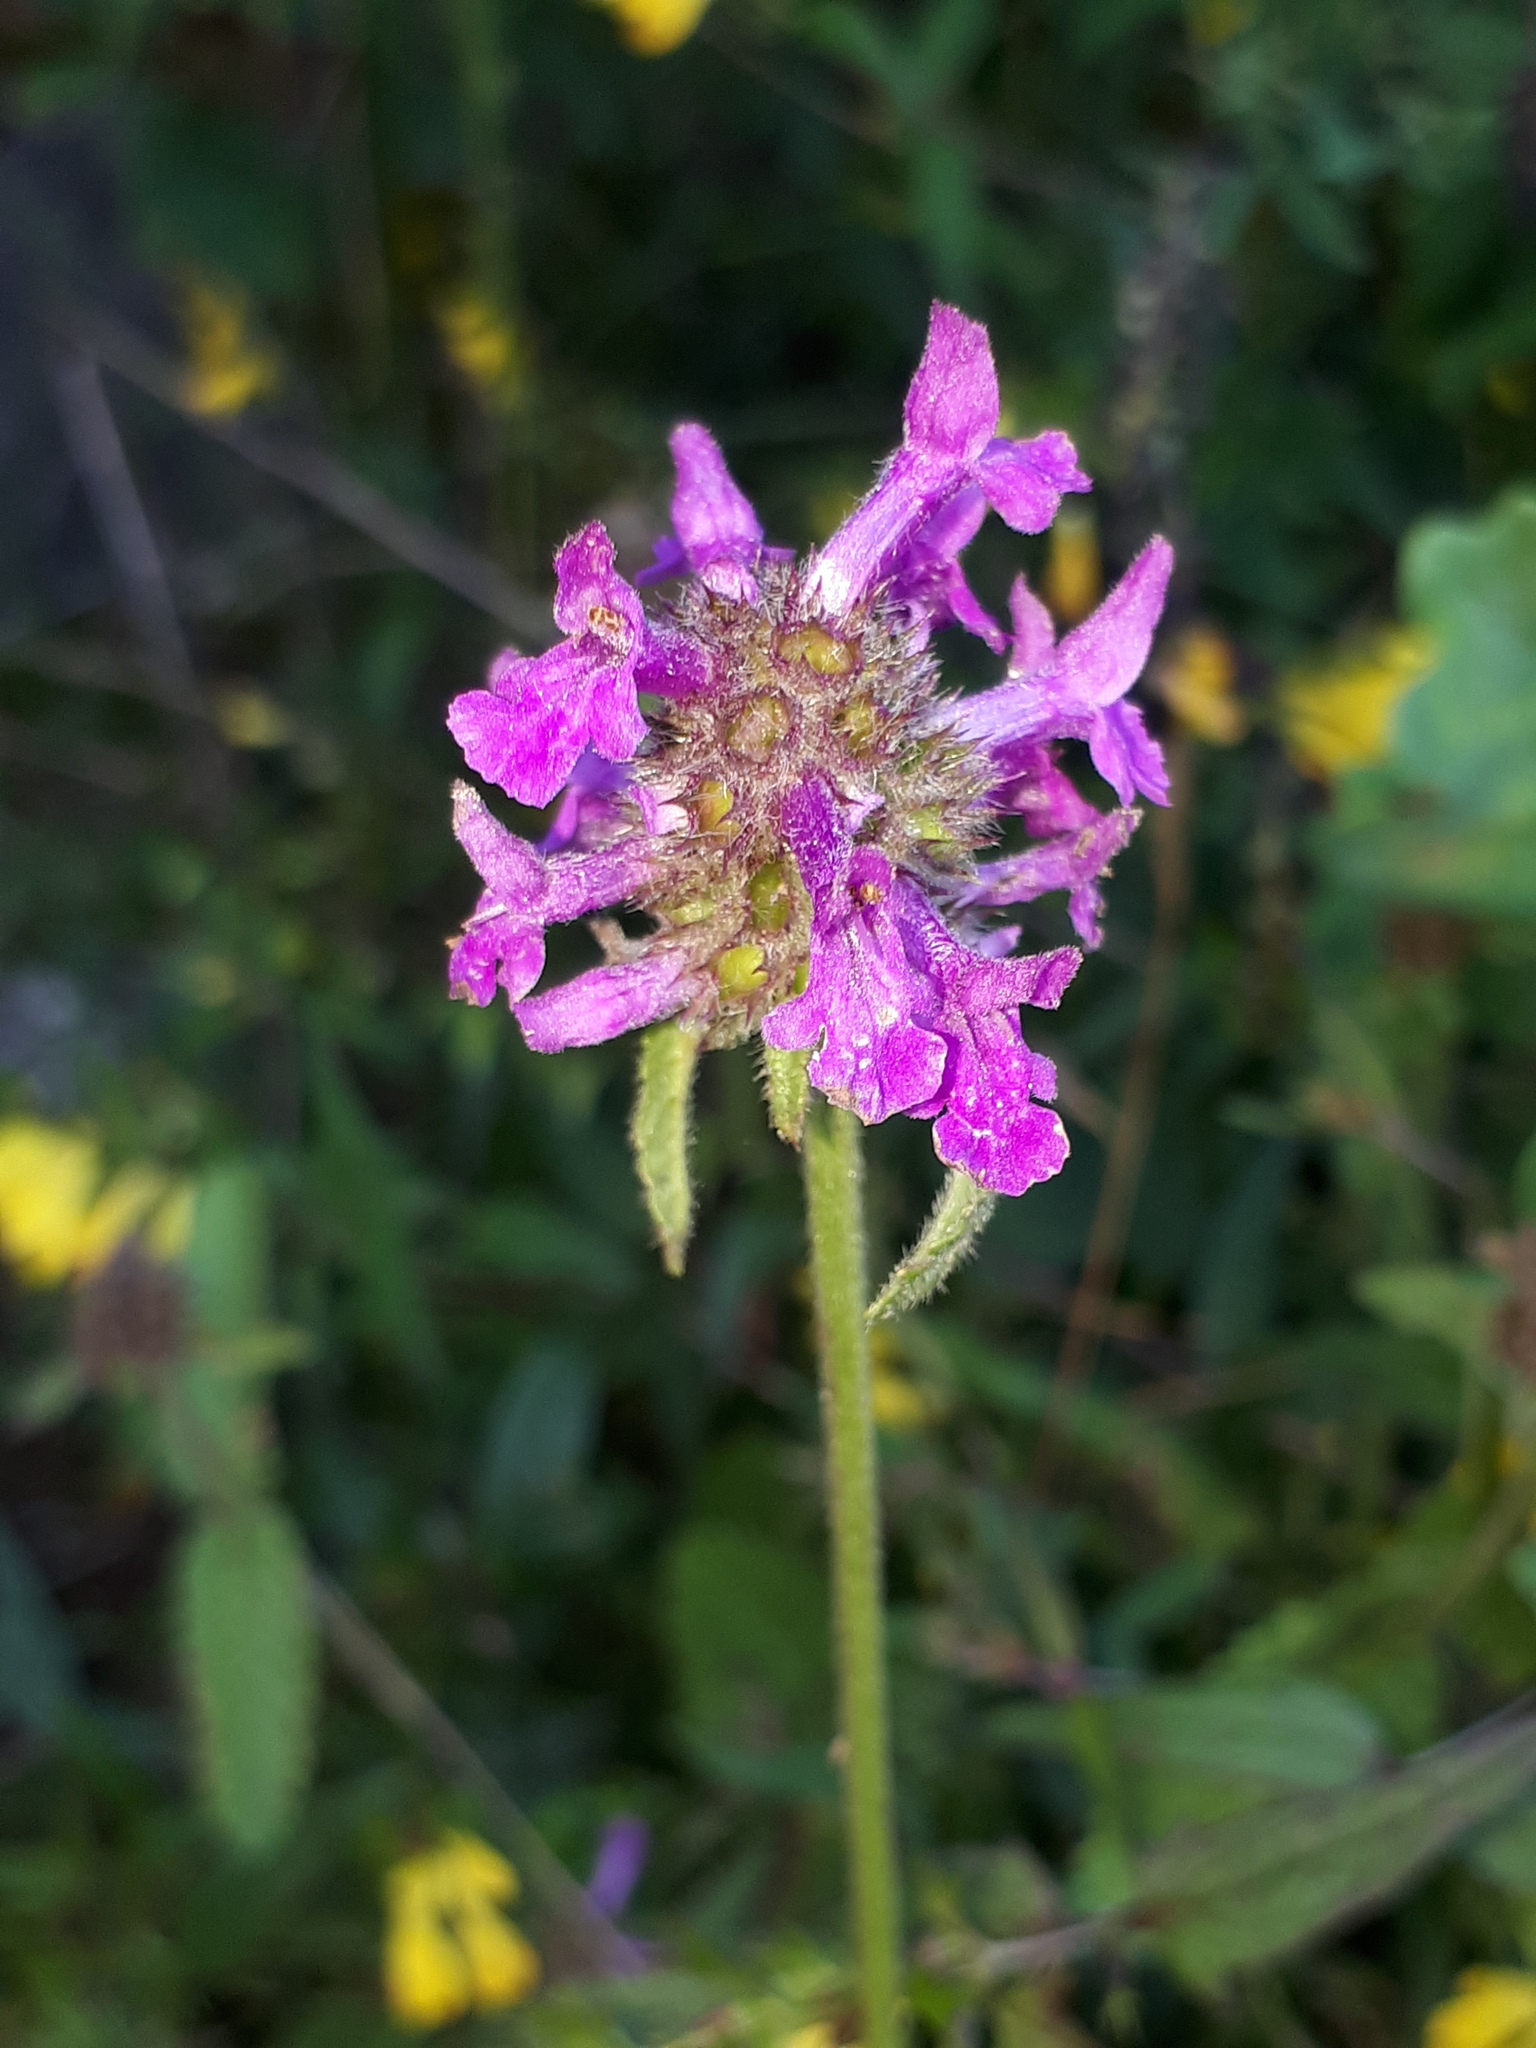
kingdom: Plantae
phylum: Tracheophyta
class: Magnoliopsida
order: Lamiales
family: Lamiaceae
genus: Betonica
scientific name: Betonica officinalis
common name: Bishop's-wort
